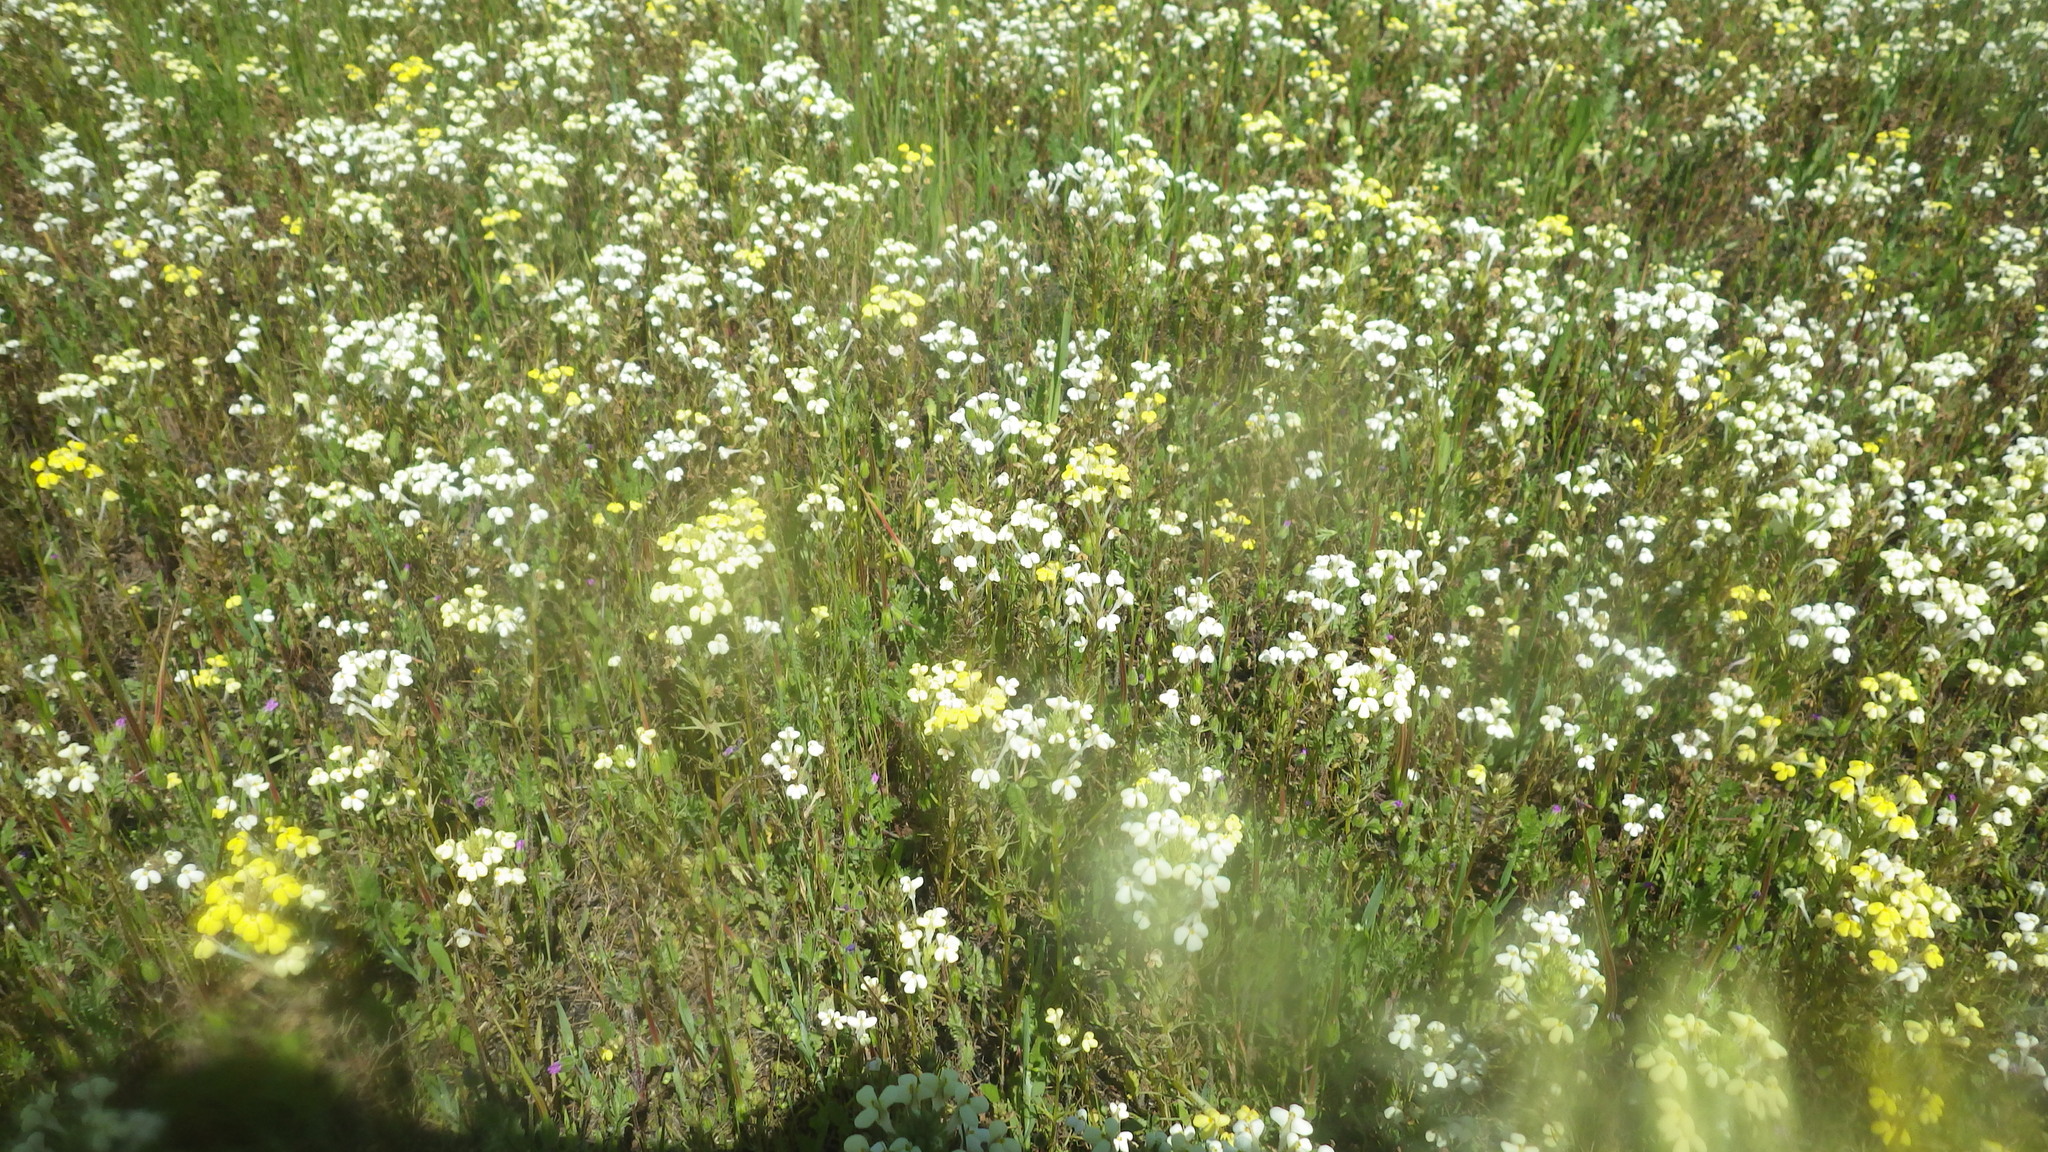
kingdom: Plantae
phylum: Tracheophyta
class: Magnoliopsida
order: Lamiales
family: Orobanchaceae
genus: Triphysaria
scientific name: Triphysaria versicolor
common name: Bearded false owl-clover
